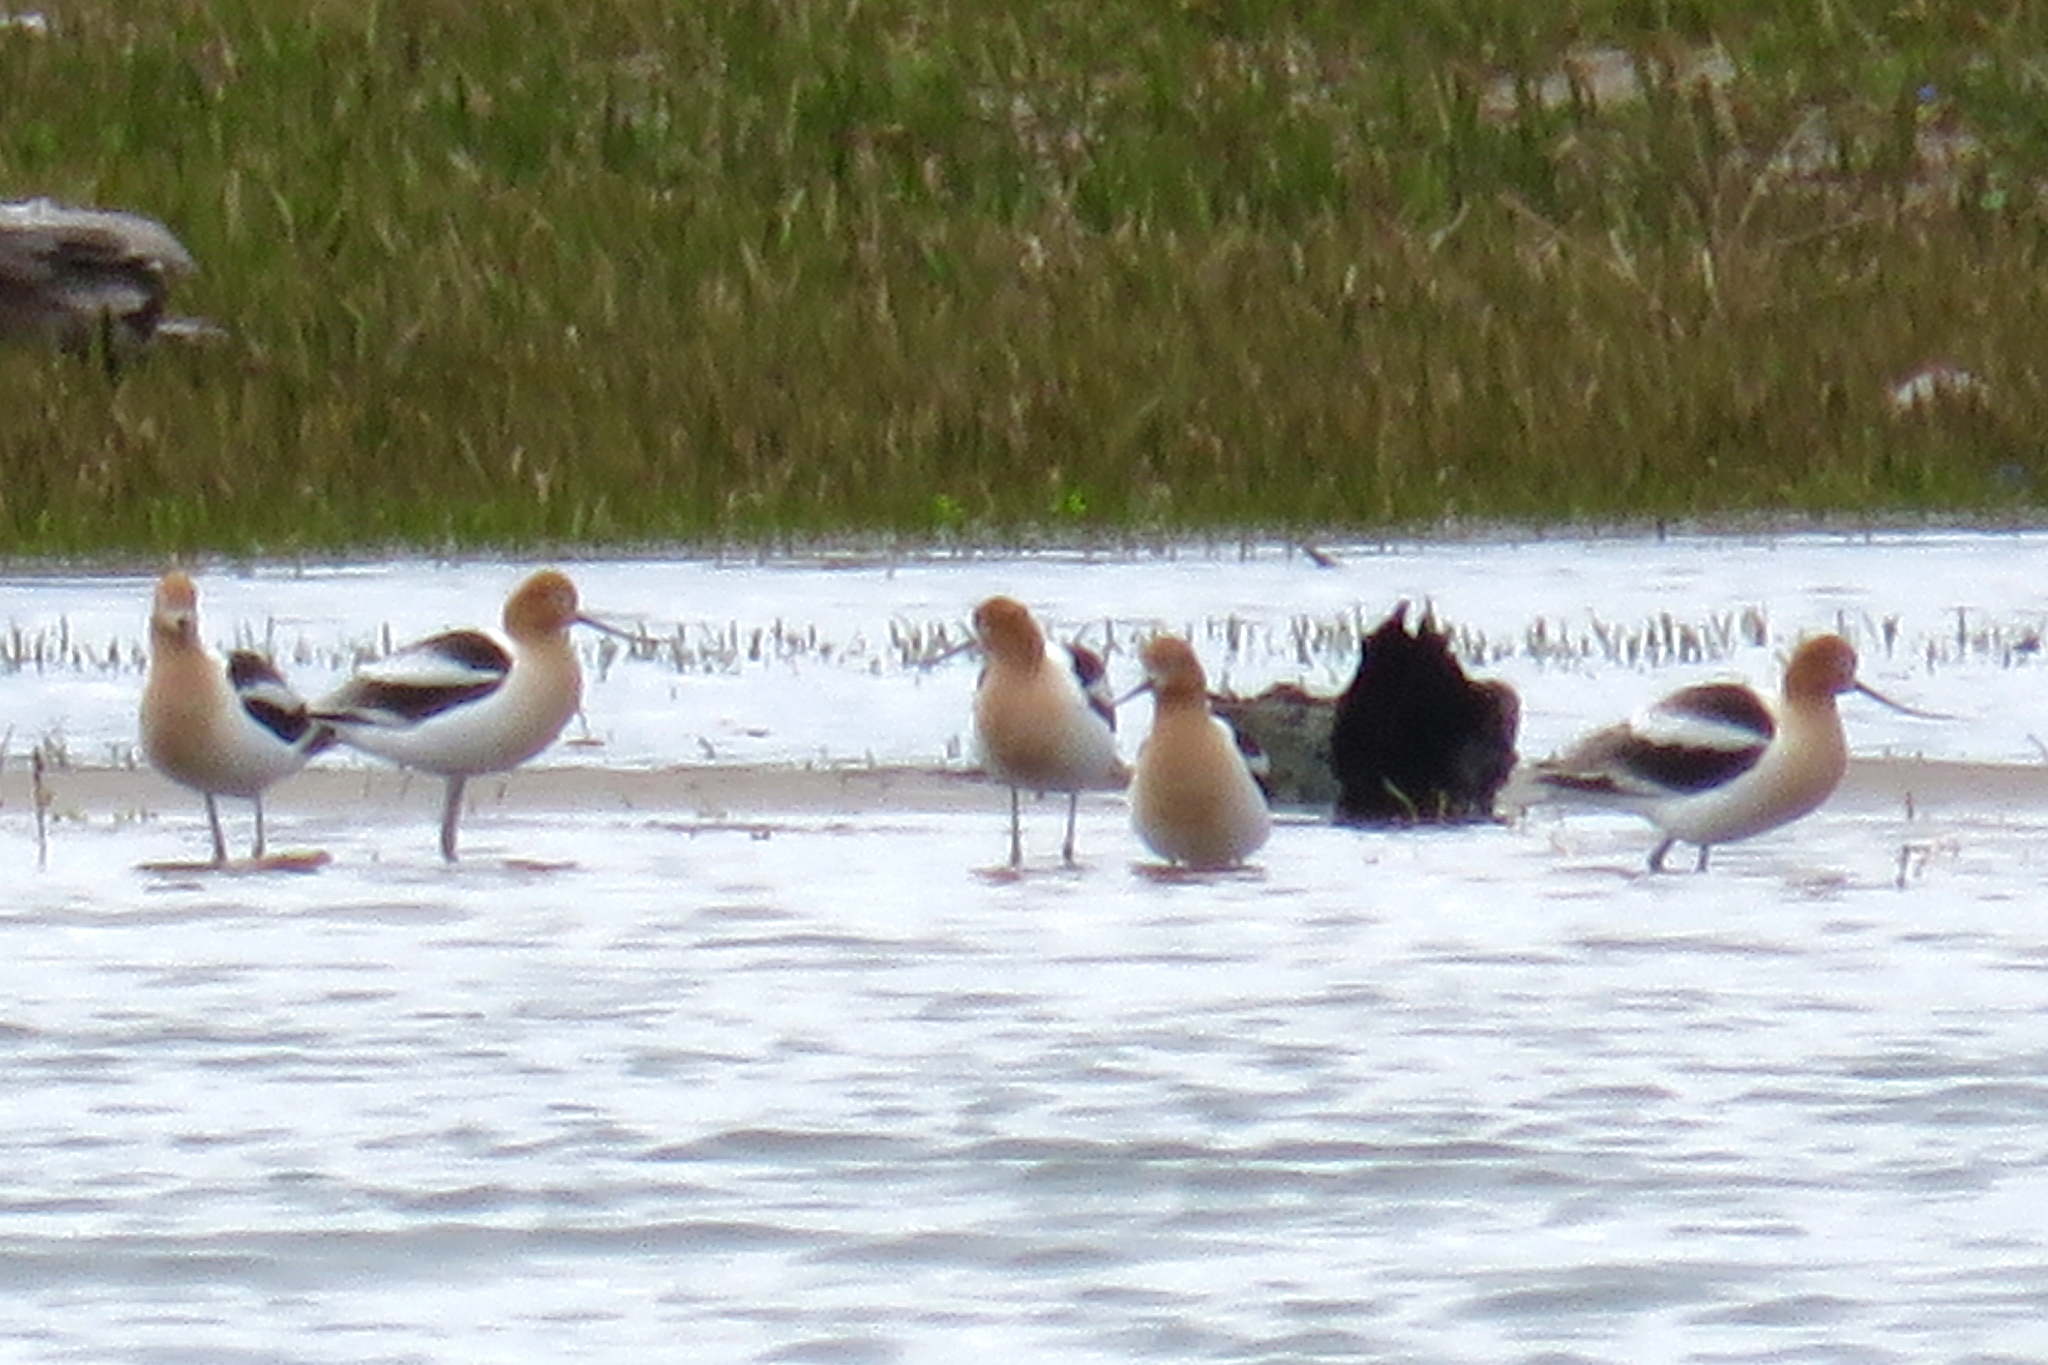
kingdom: Animalia
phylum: Chordata
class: Aves
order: Charadriiformes
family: Recurvirostridae
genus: Recurvirostra
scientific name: Recurvirostra americana
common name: American avocet
